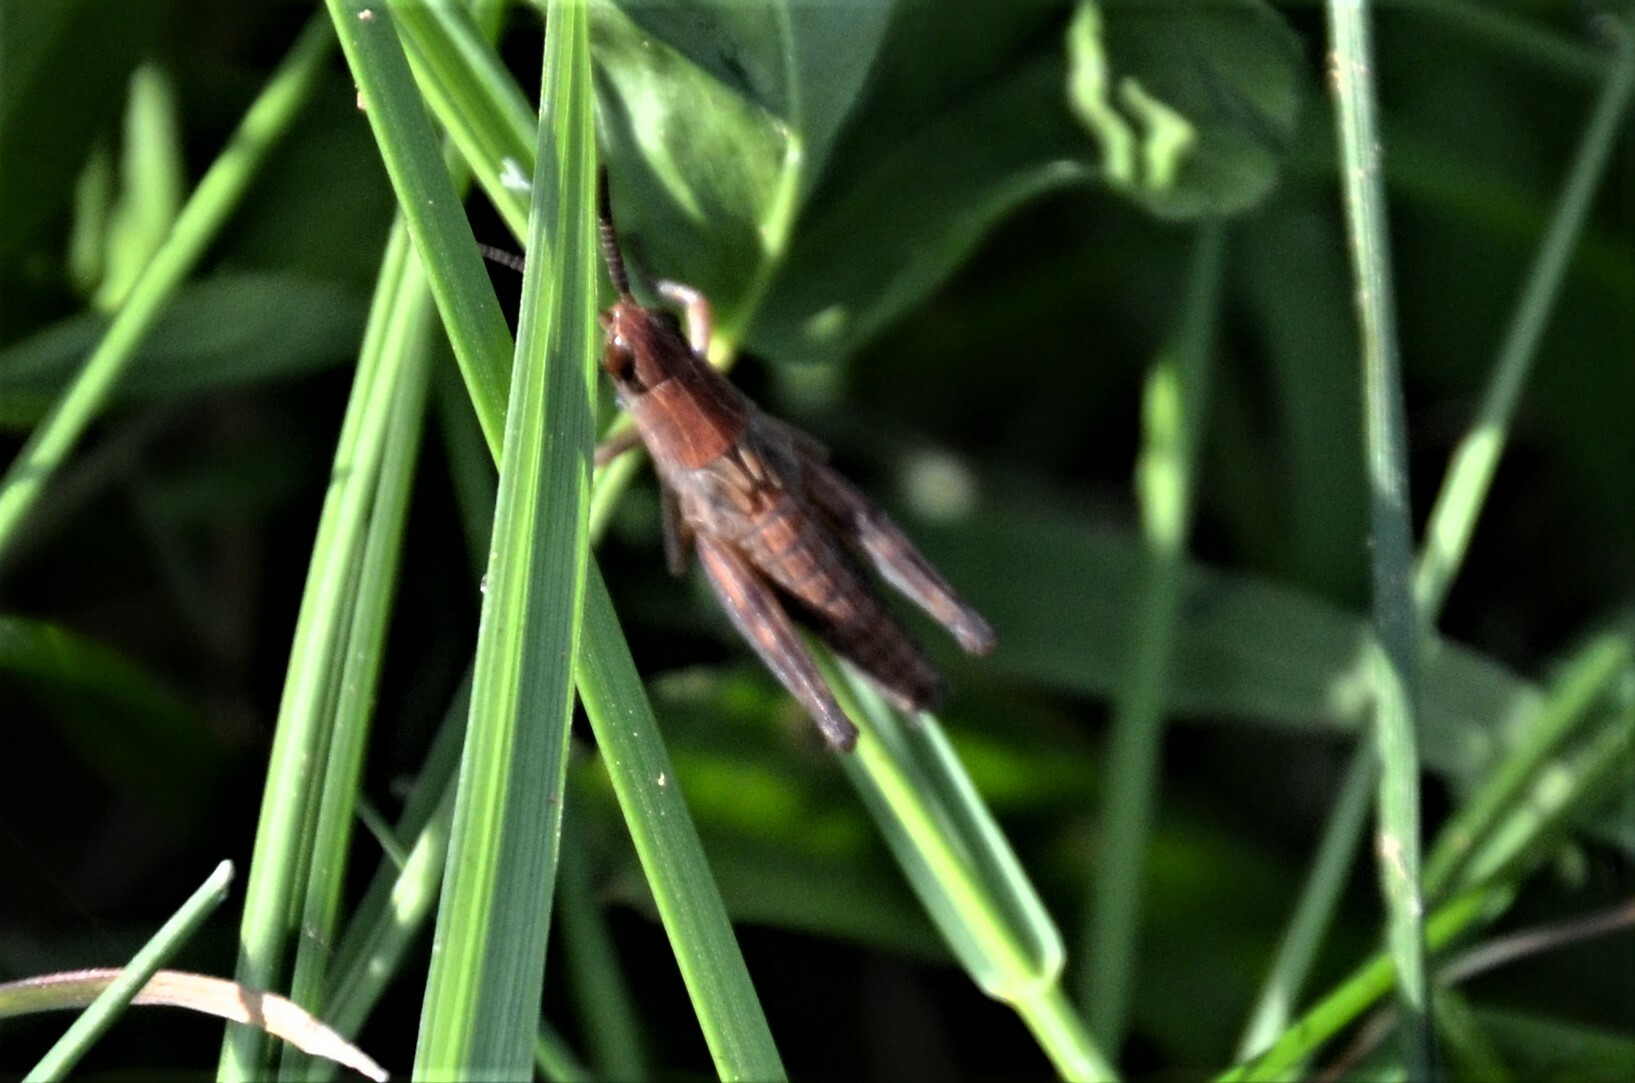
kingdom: Animalia
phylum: Arthropoda
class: Insecta
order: Orthoptera
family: Acrididae
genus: Pseudochorthippus
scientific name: Pseudochorthippus parallelus
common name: Meadow grasshopper
